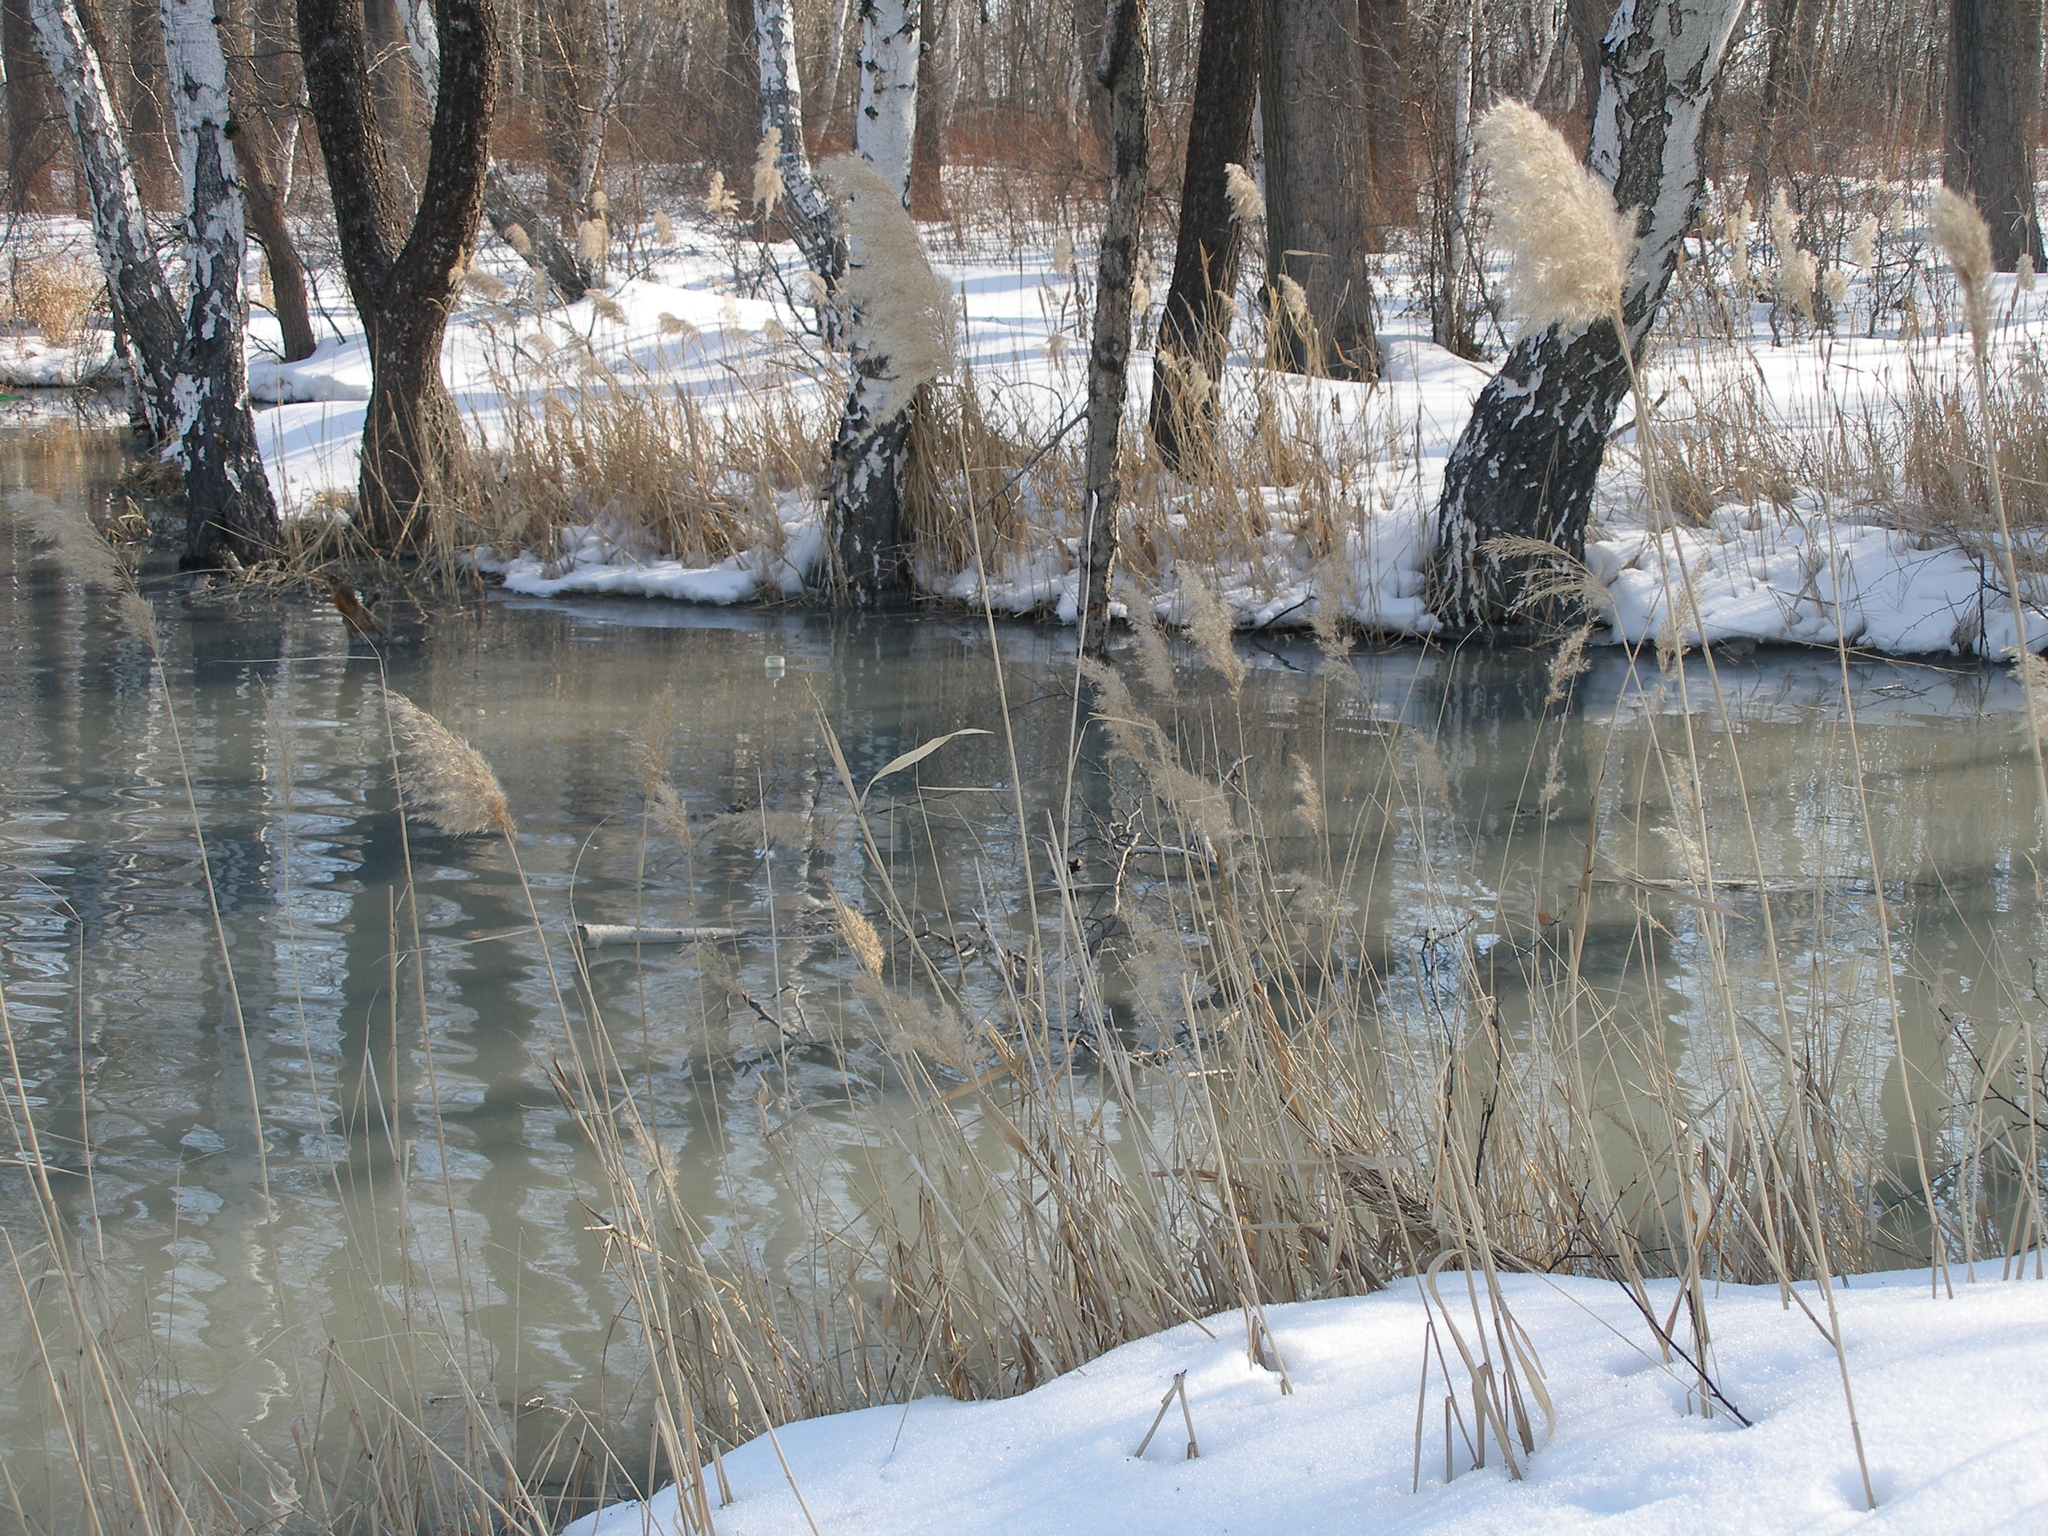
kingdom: Plantae
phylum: Tracheophyta
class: Liliopsida
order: Poales
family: Poaceae
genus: Phragmites
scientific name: Phragmites australis
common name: Common reed
